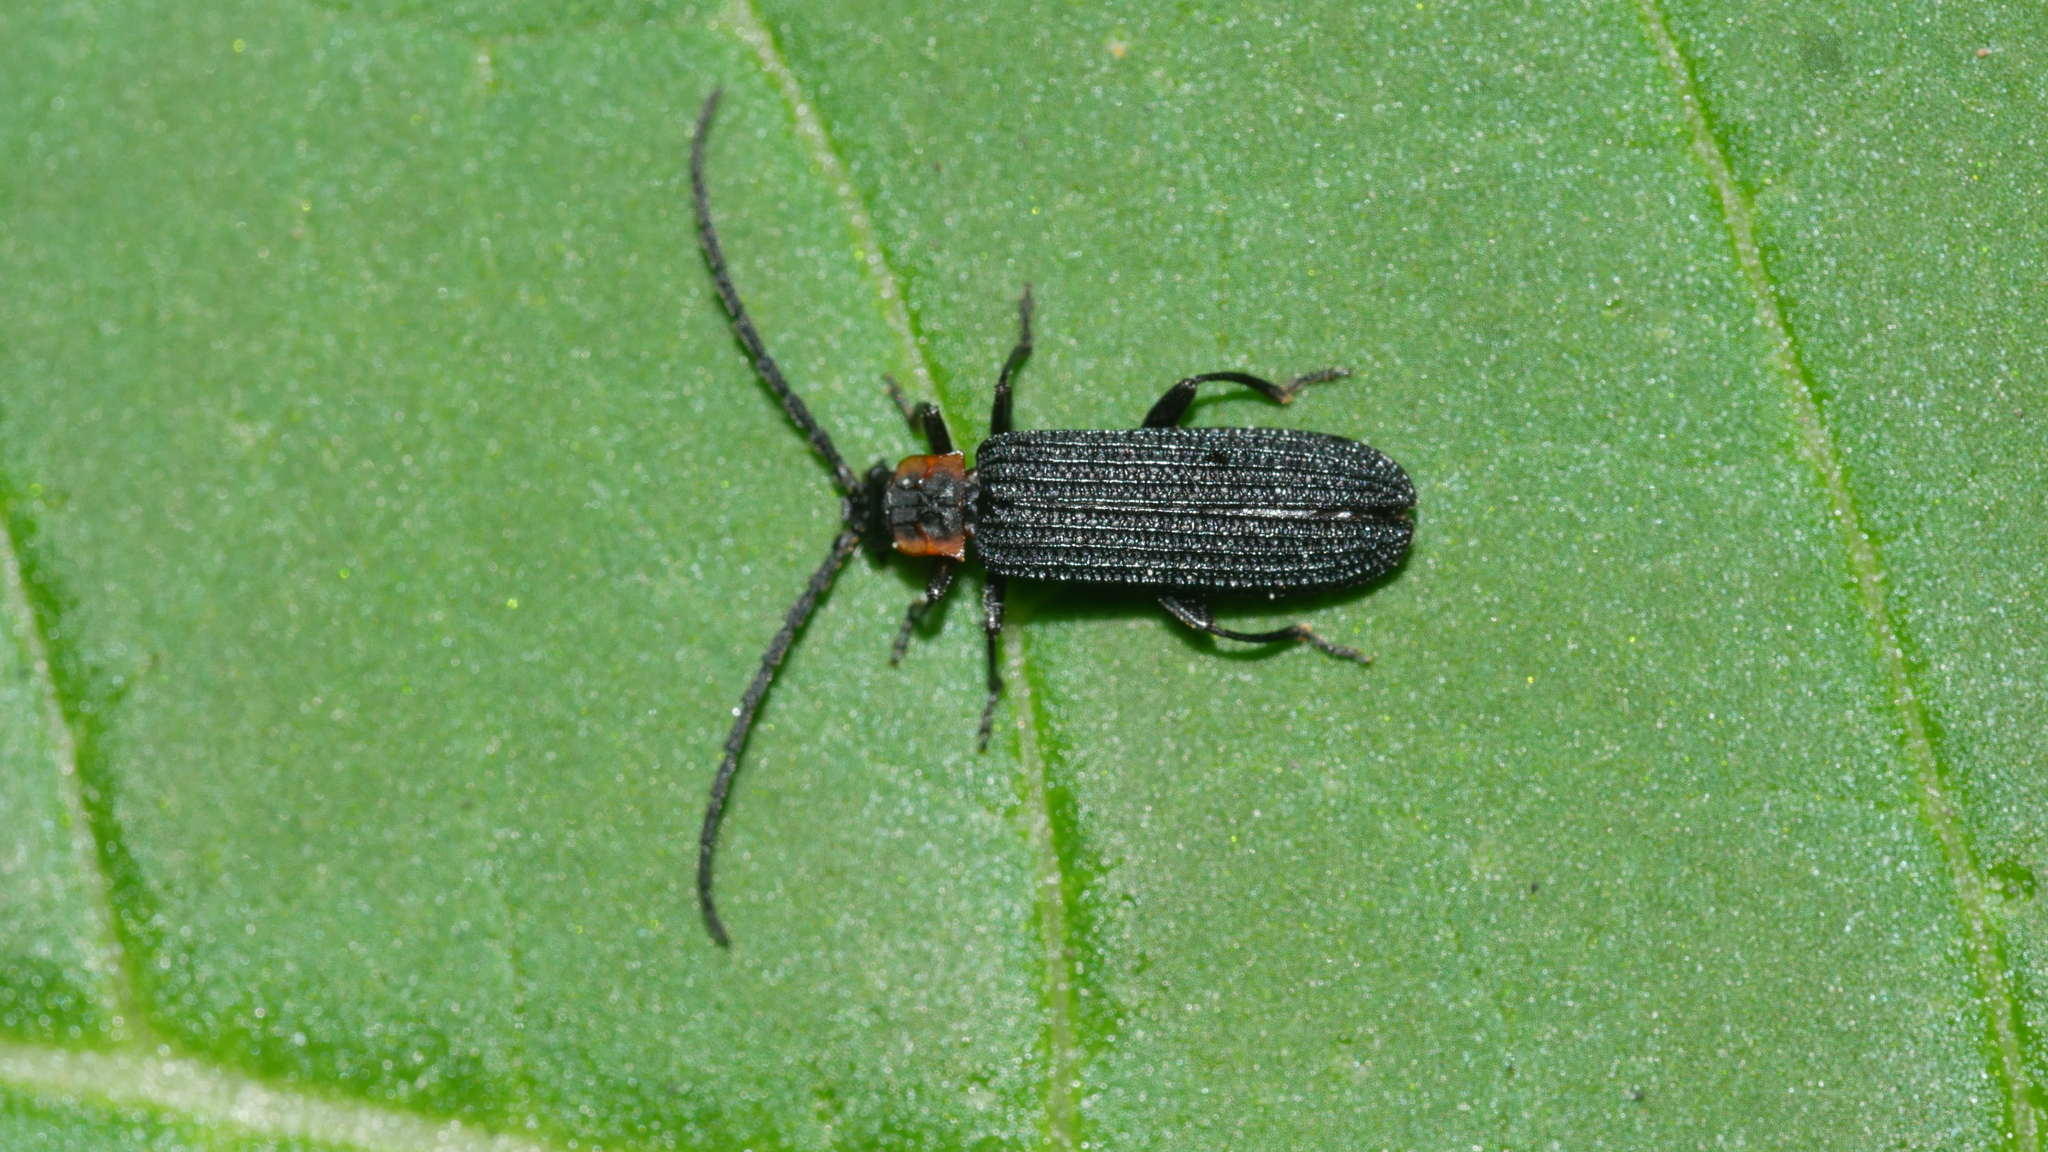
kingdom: Animalia
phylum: Arthropoda
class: Insecta
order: Coleoptera
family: Lycidae
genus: Erotides
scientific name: Erotides sculptilis
